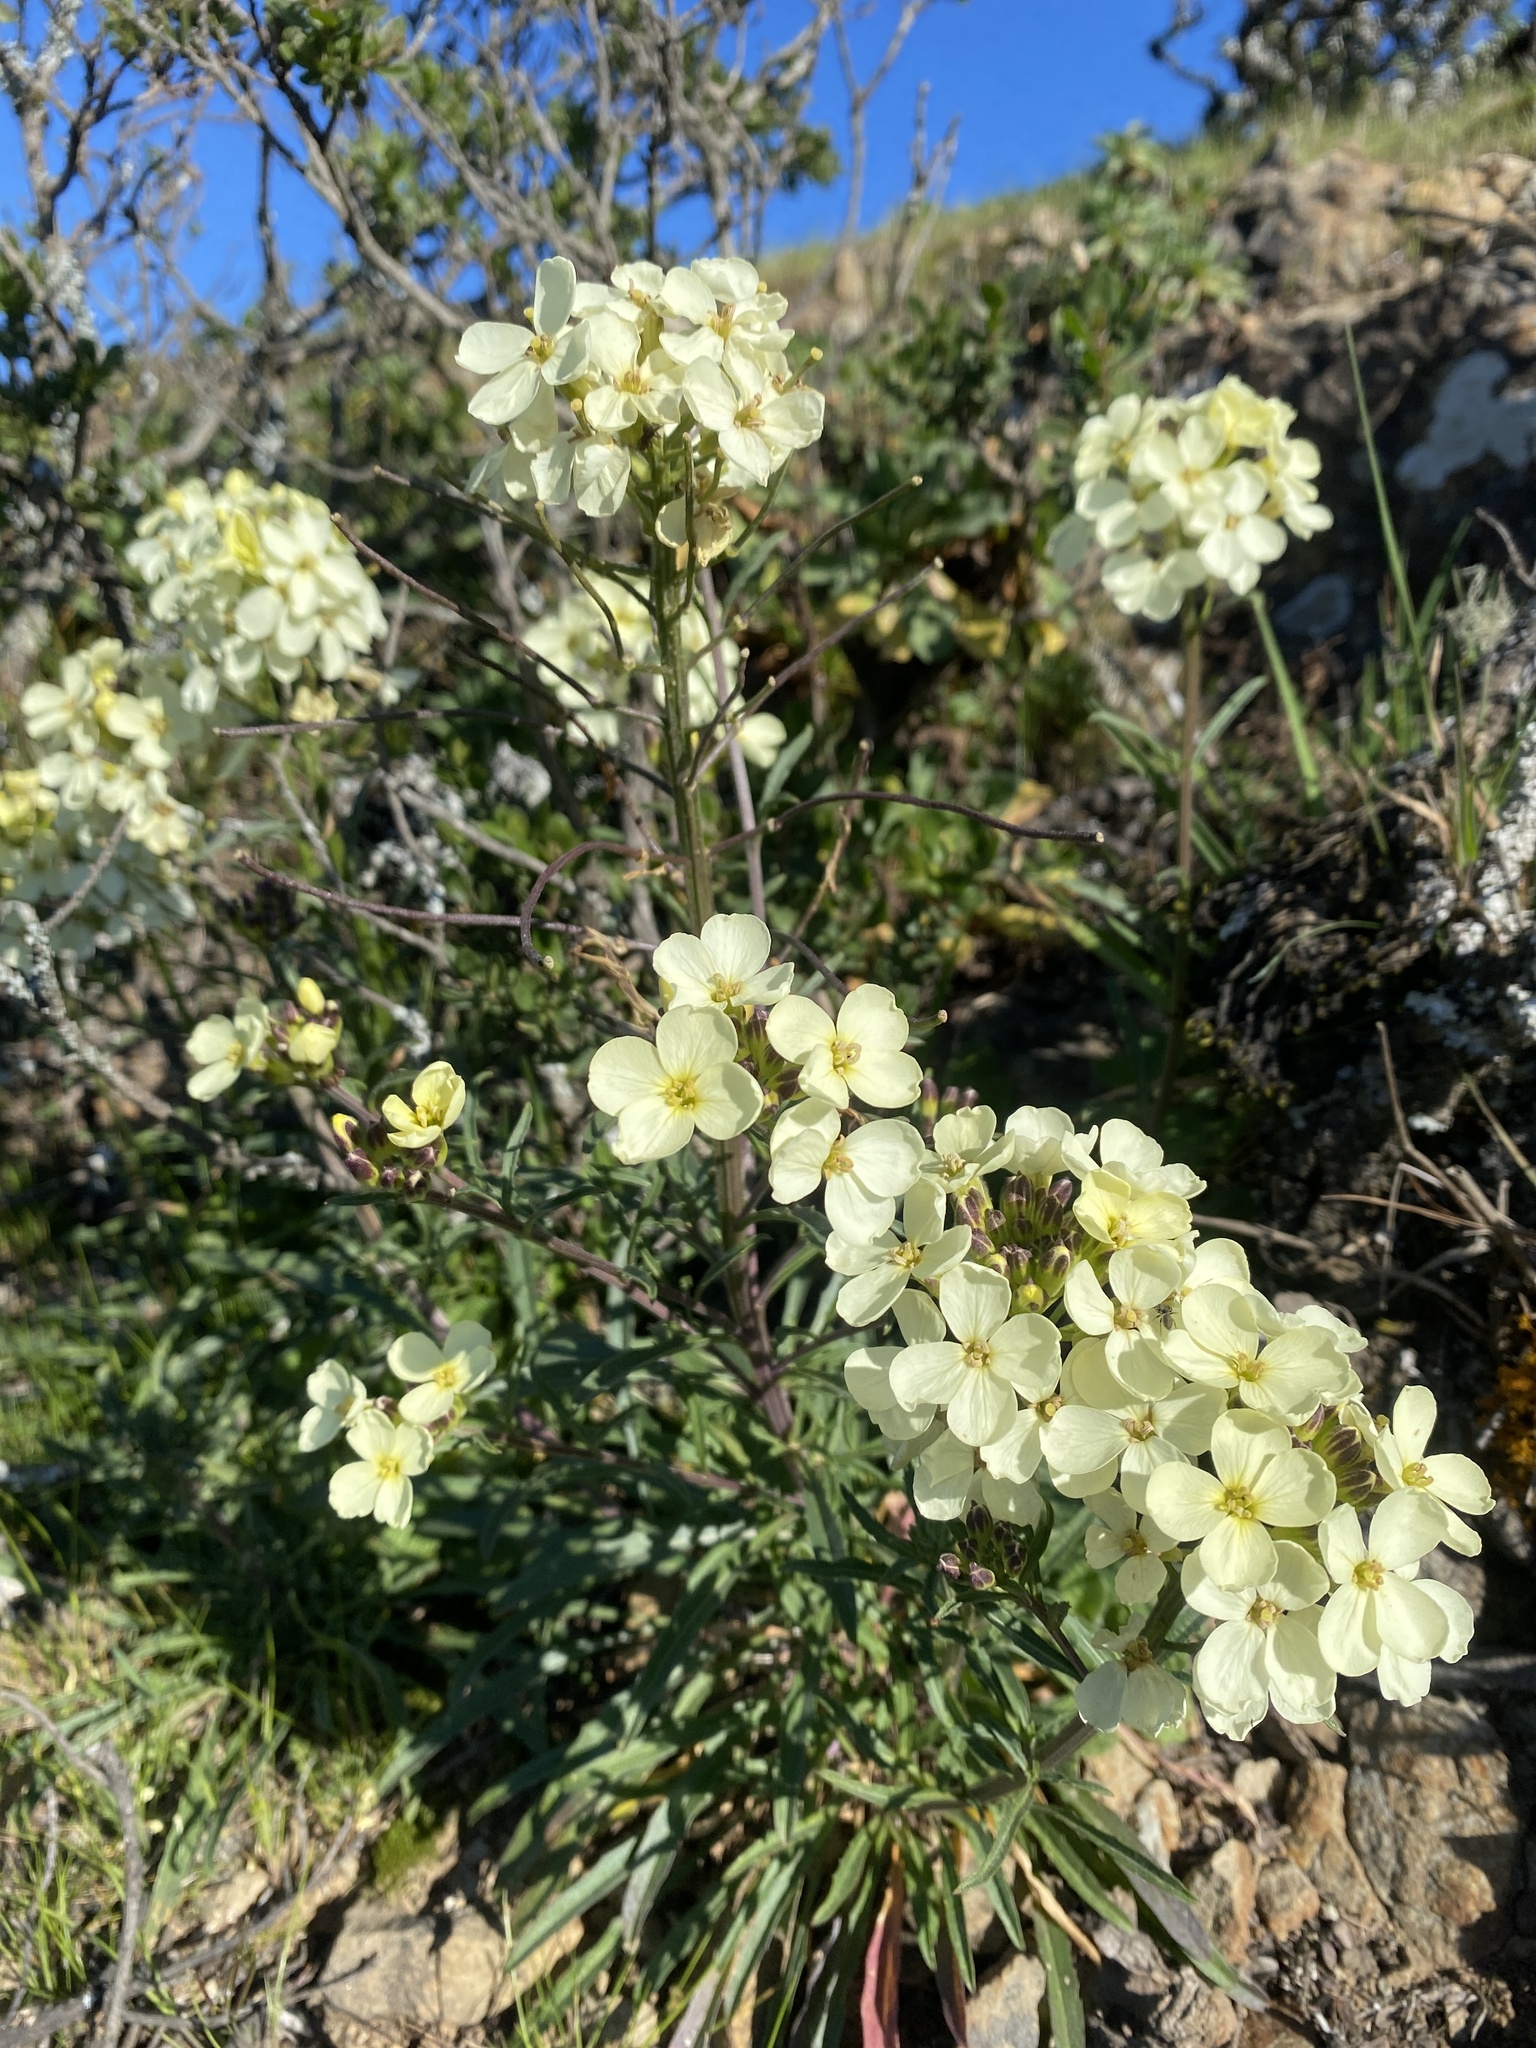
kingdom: Plantae
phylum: Tracheophyta
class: Magnoliopsida
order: Brassicales
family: Brassicaceae
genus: Erysimum
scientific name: Erysimum franciscanum
